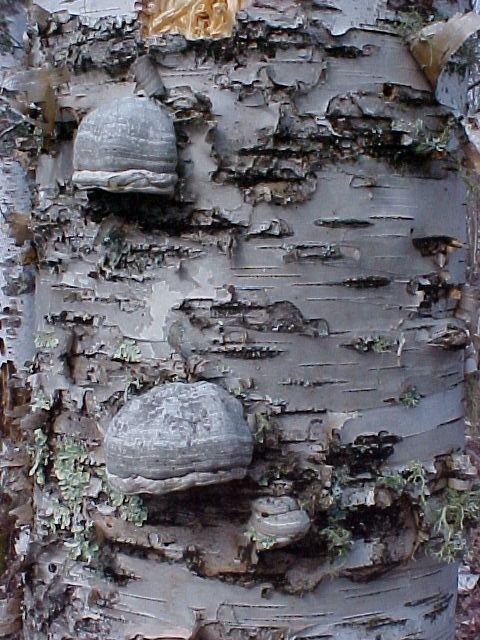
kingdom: Fungi
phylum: Basidiomycota
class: Agaricomycetes
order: Polyporales
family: Polyporaceae
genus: Fomes
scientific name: Fomes fomentarius
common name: Hoof fungus
